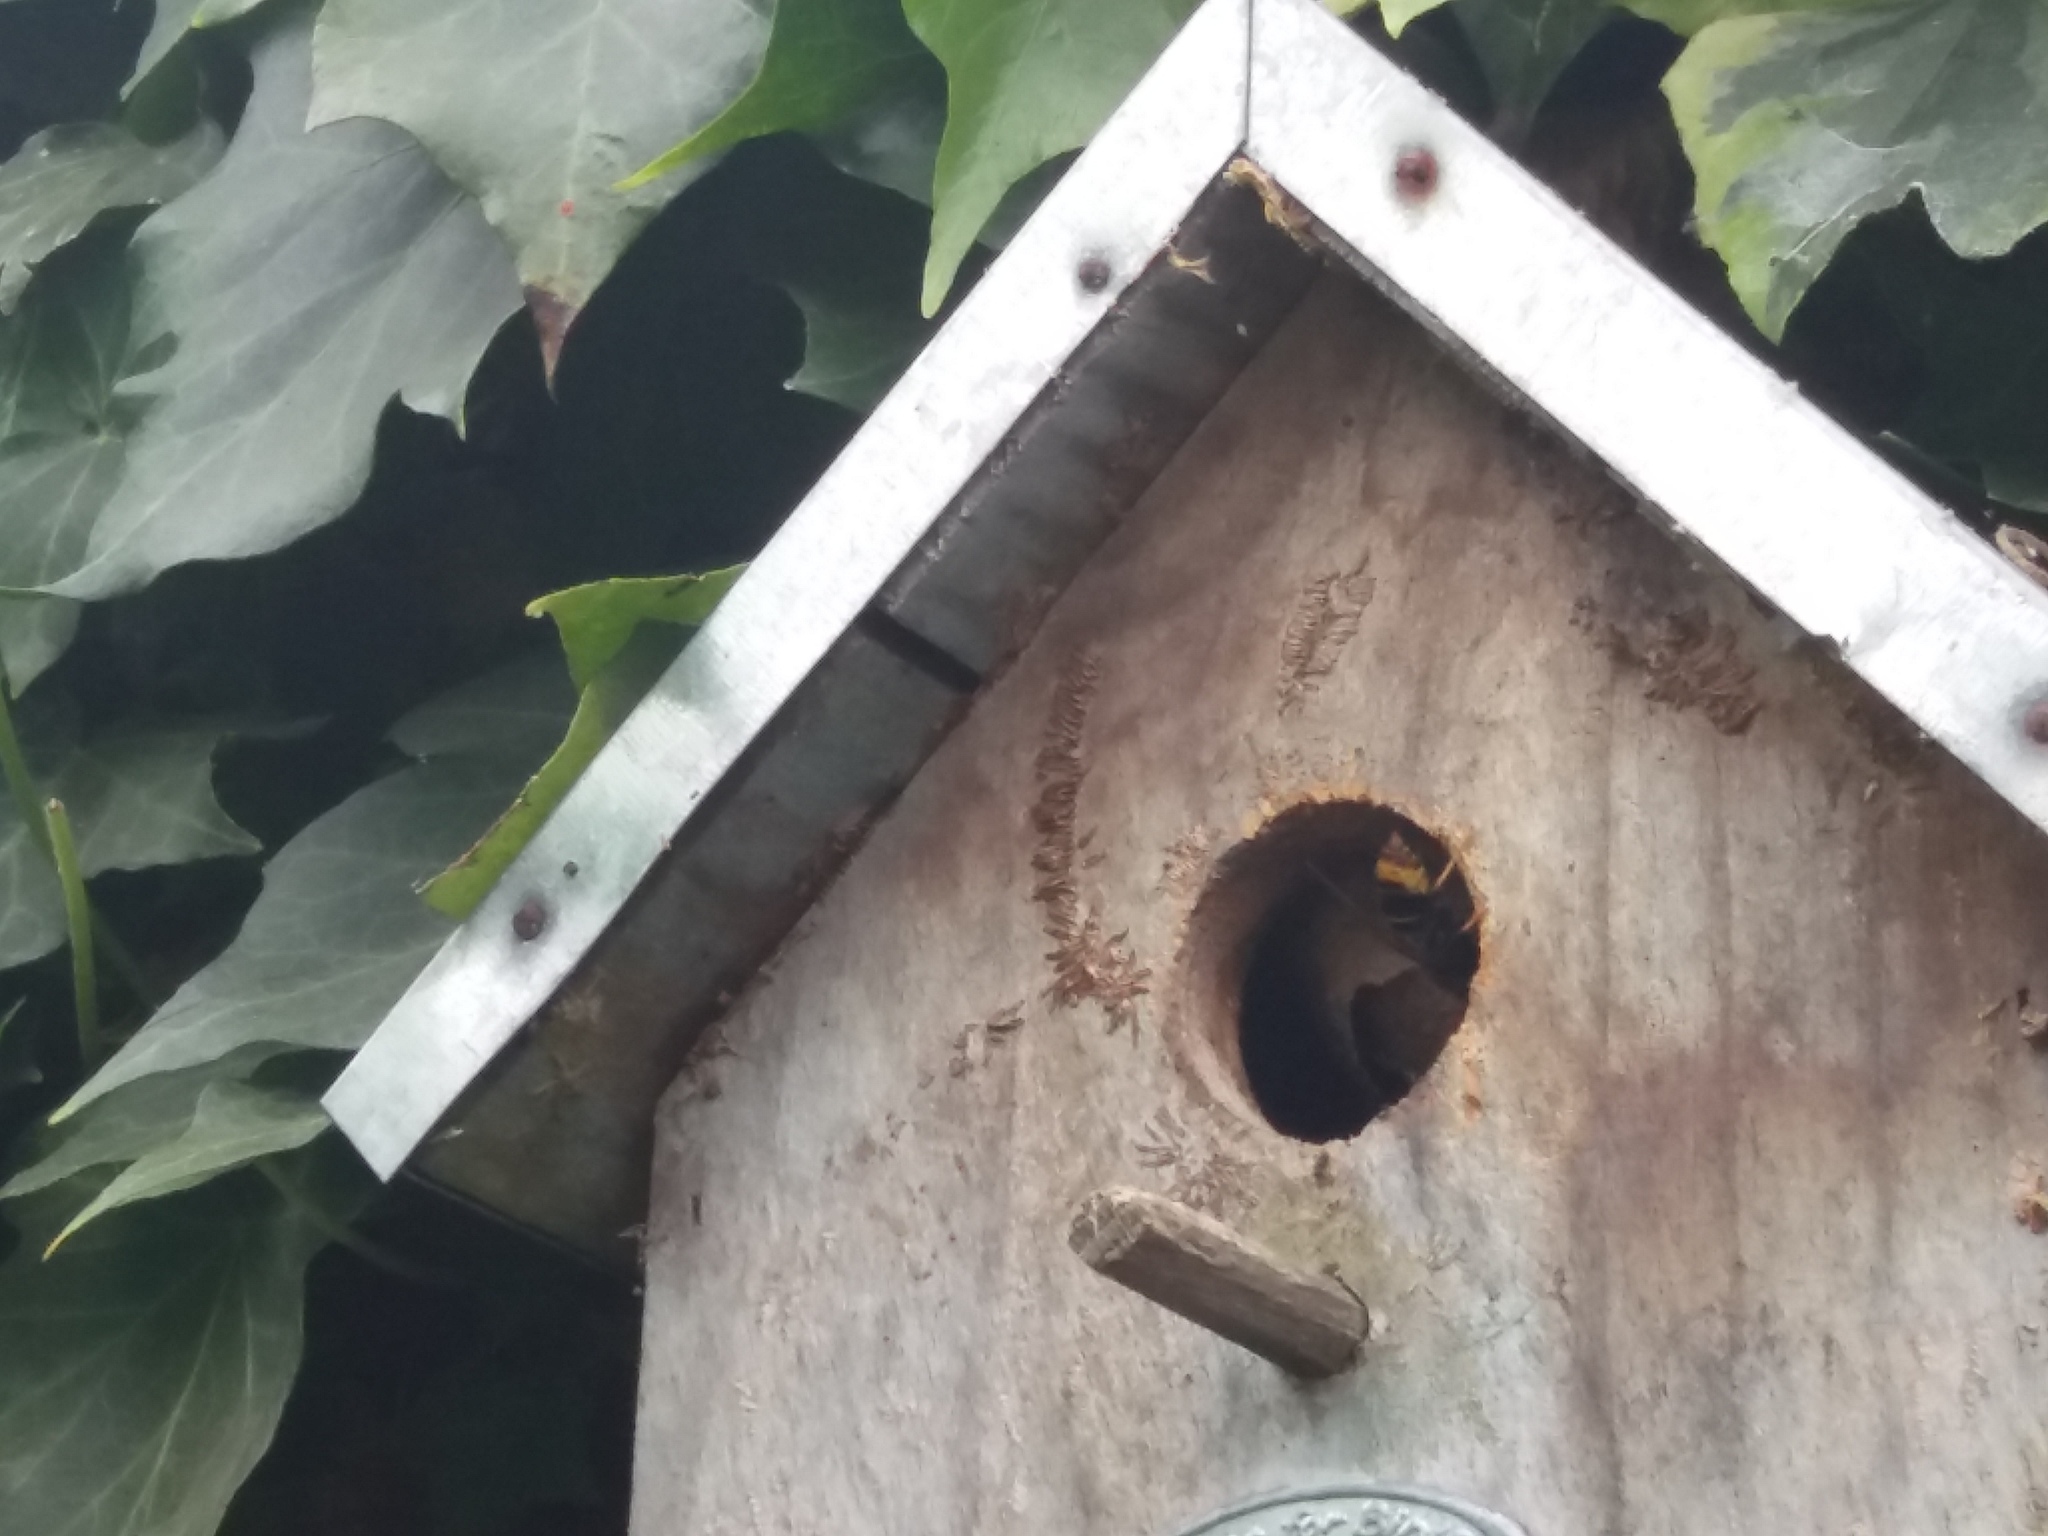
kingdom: Animalia
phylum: Arthropoda
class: Insecta
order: Hymenoptera
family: Vespidae
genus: Vespa
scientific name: Vespa velutina
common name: Asian hornet
